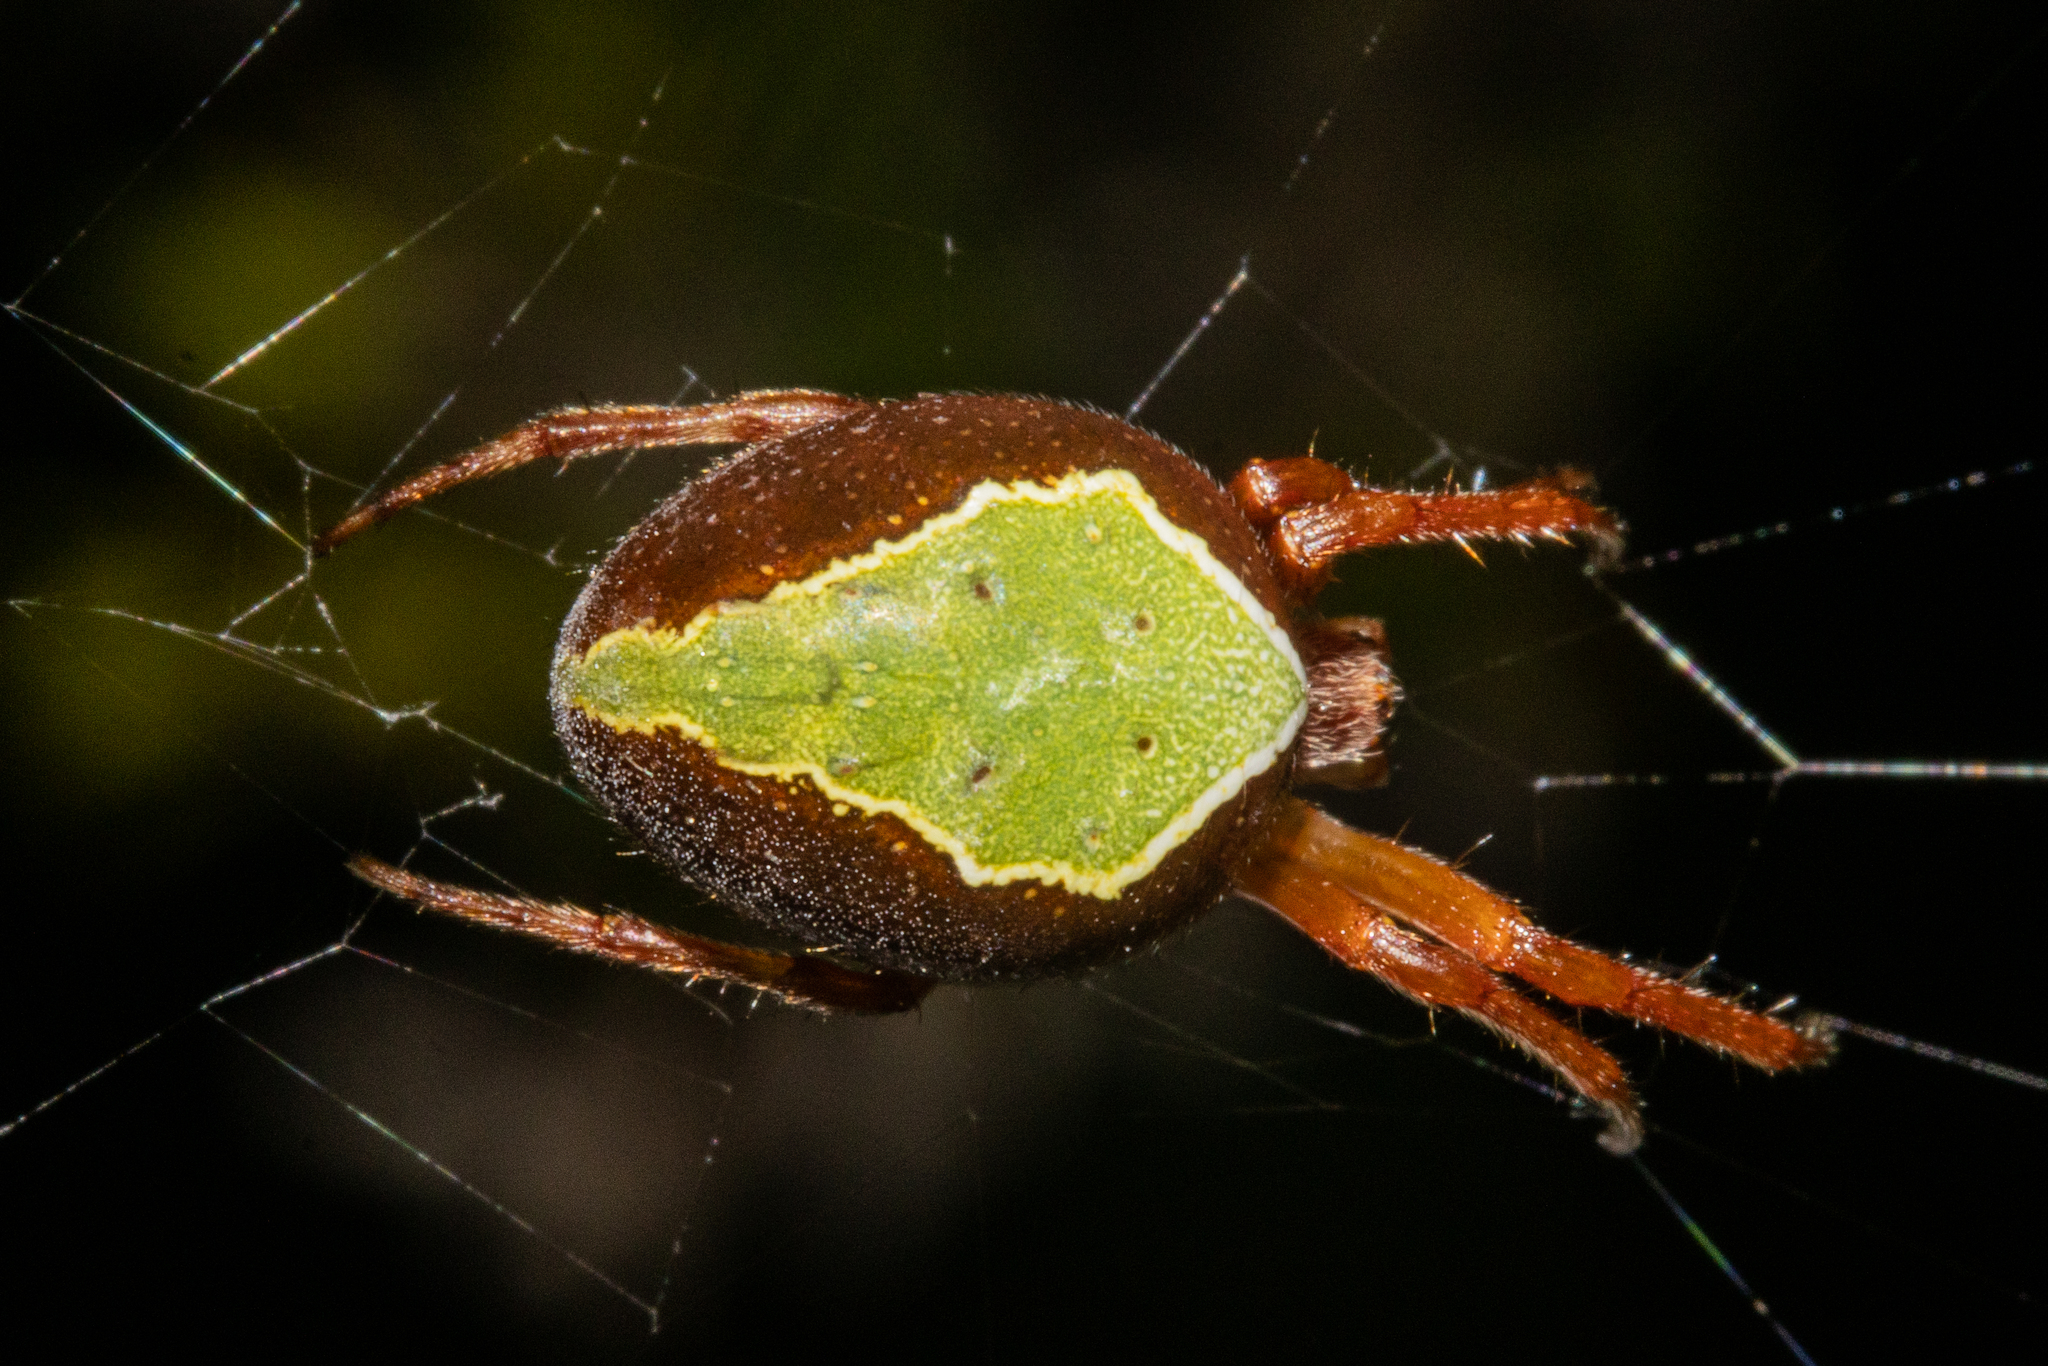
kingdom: Animalia
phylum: Arthropoda
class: Arachnida
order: Araneae
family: Araneidae
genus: Colaranea
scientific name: Colaranea viriditas
